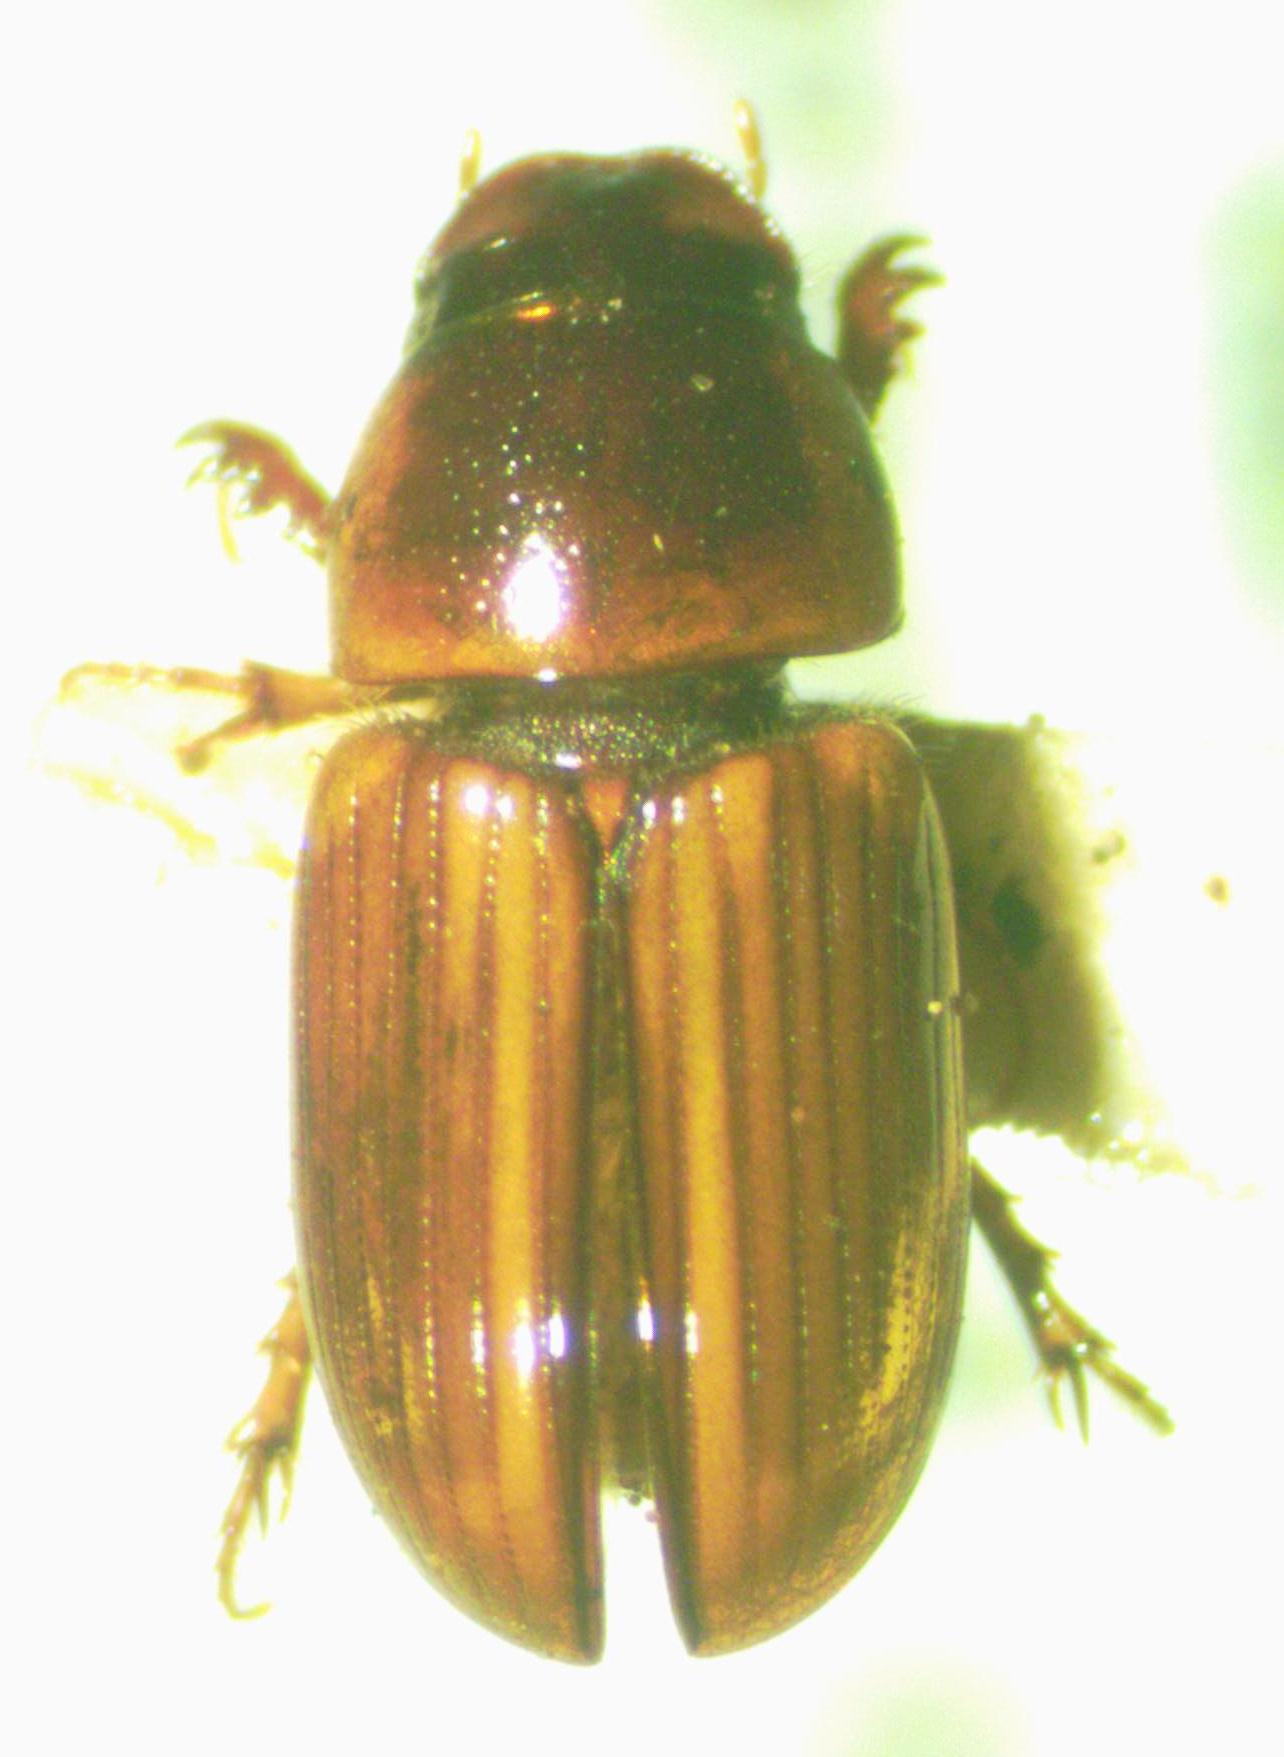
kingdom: Animalia
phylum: Arthropoda
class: Insecta
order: Coleoptera
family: Scarabaeidae
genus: Labarrus
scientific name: Labarrus lividus
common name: Scarab beetle
